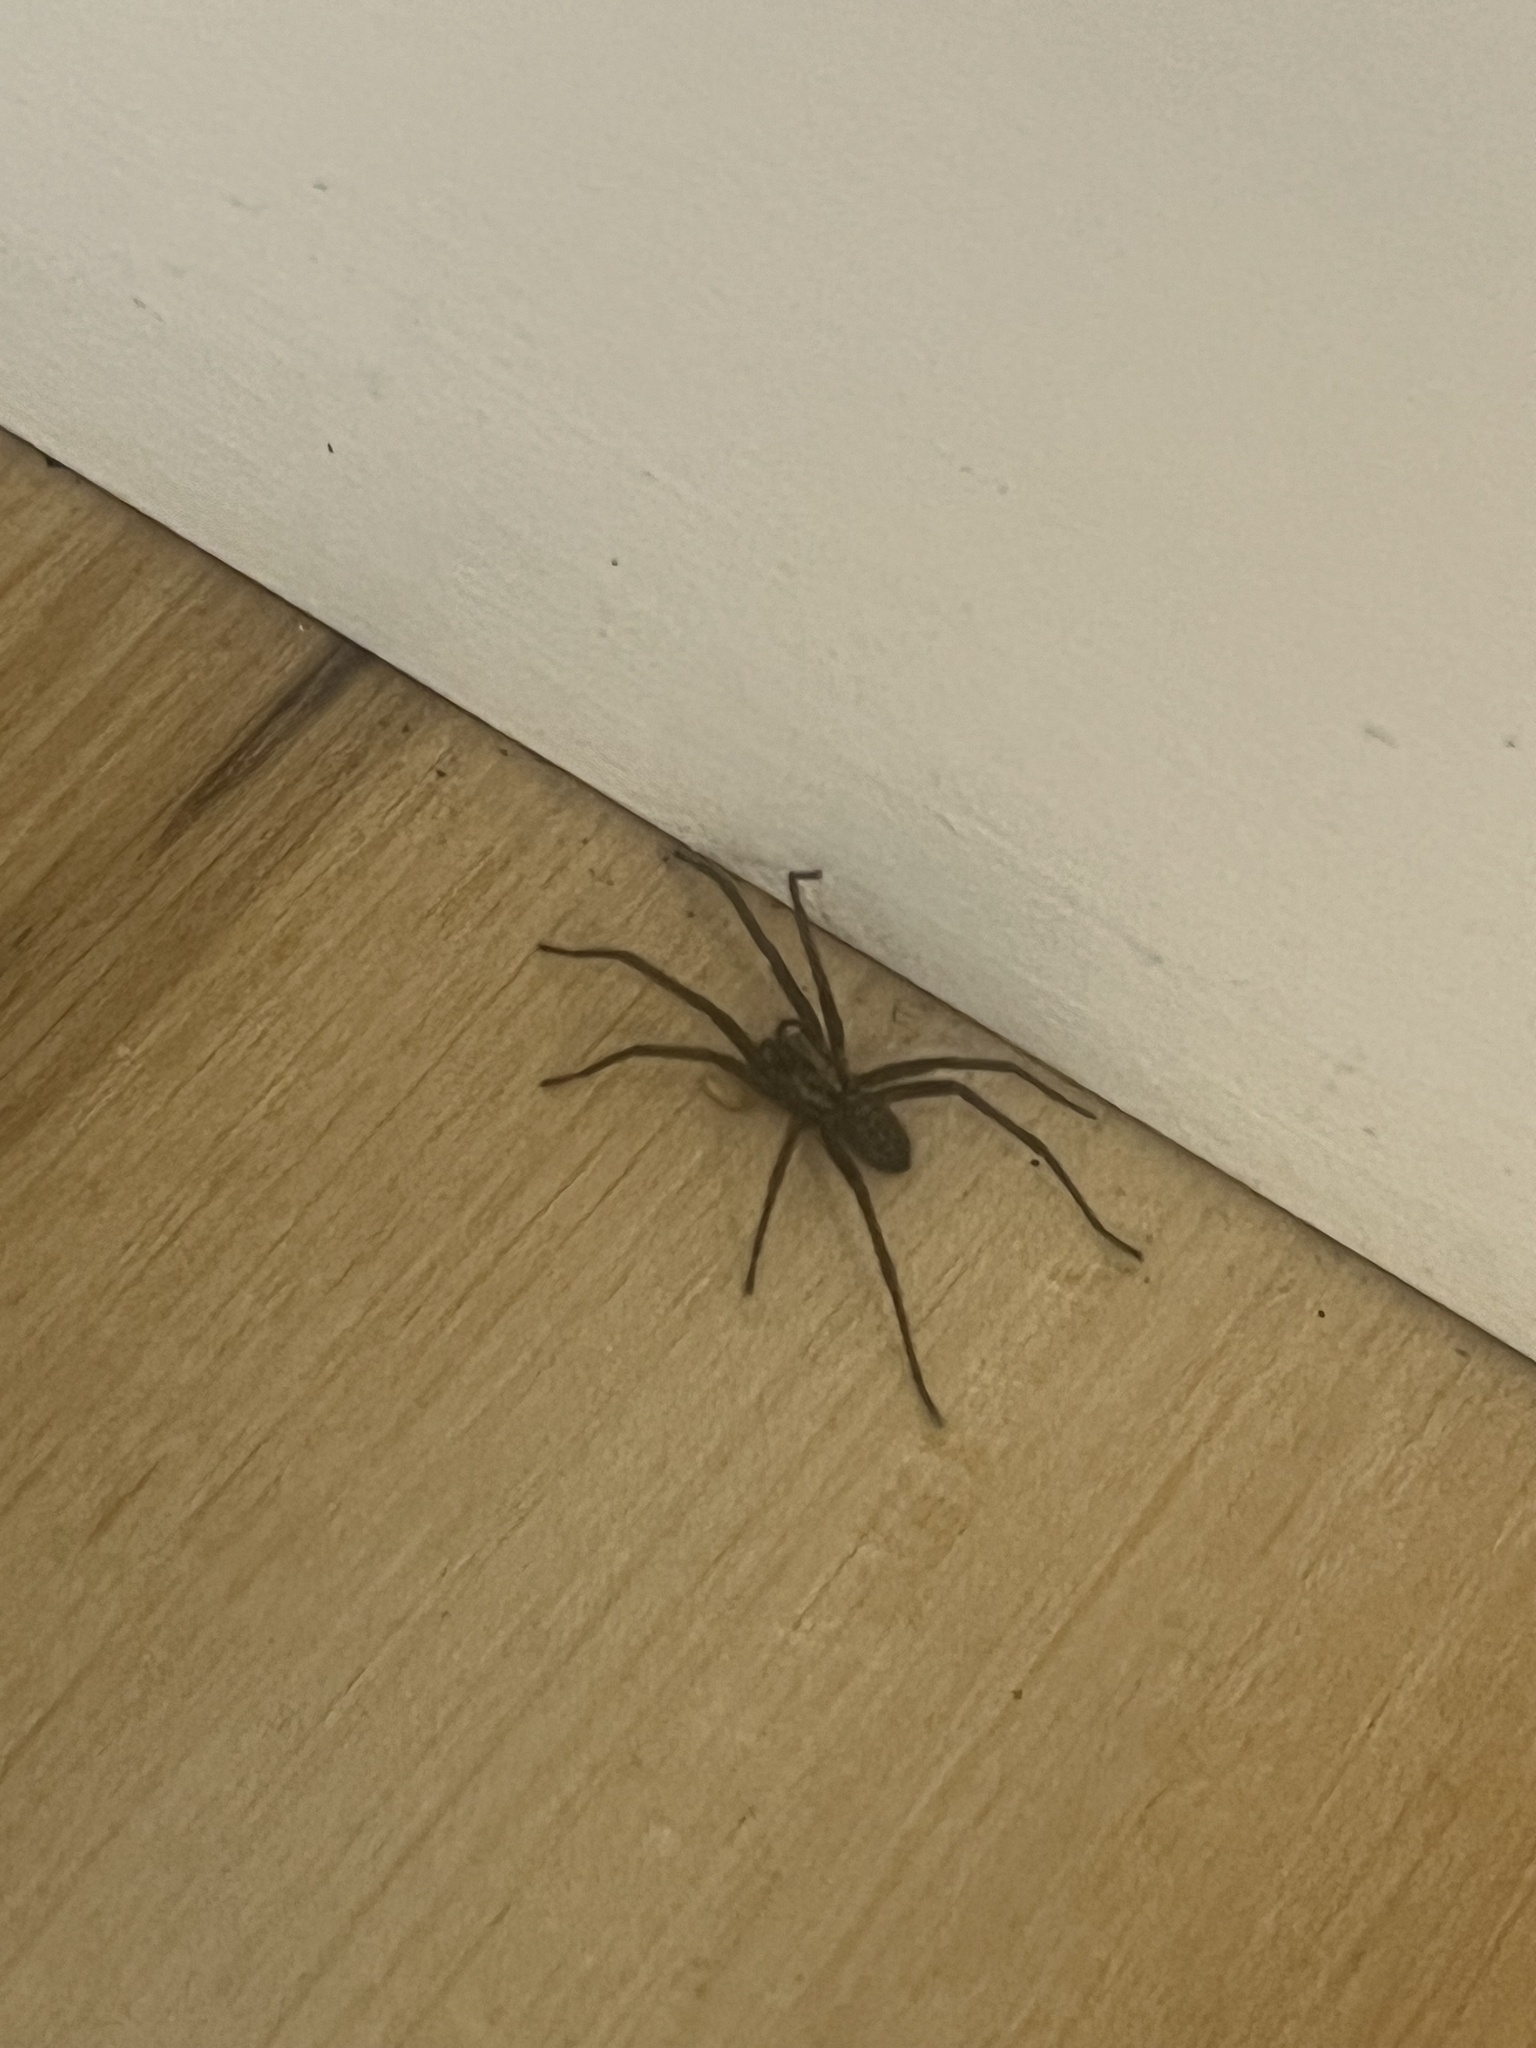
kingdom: Animalia
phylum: Arthropoda
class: Arachnida
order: Araneae
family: Agelenidae
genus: Eratigena
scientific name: Eratigena duellica
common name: Giant house spider
